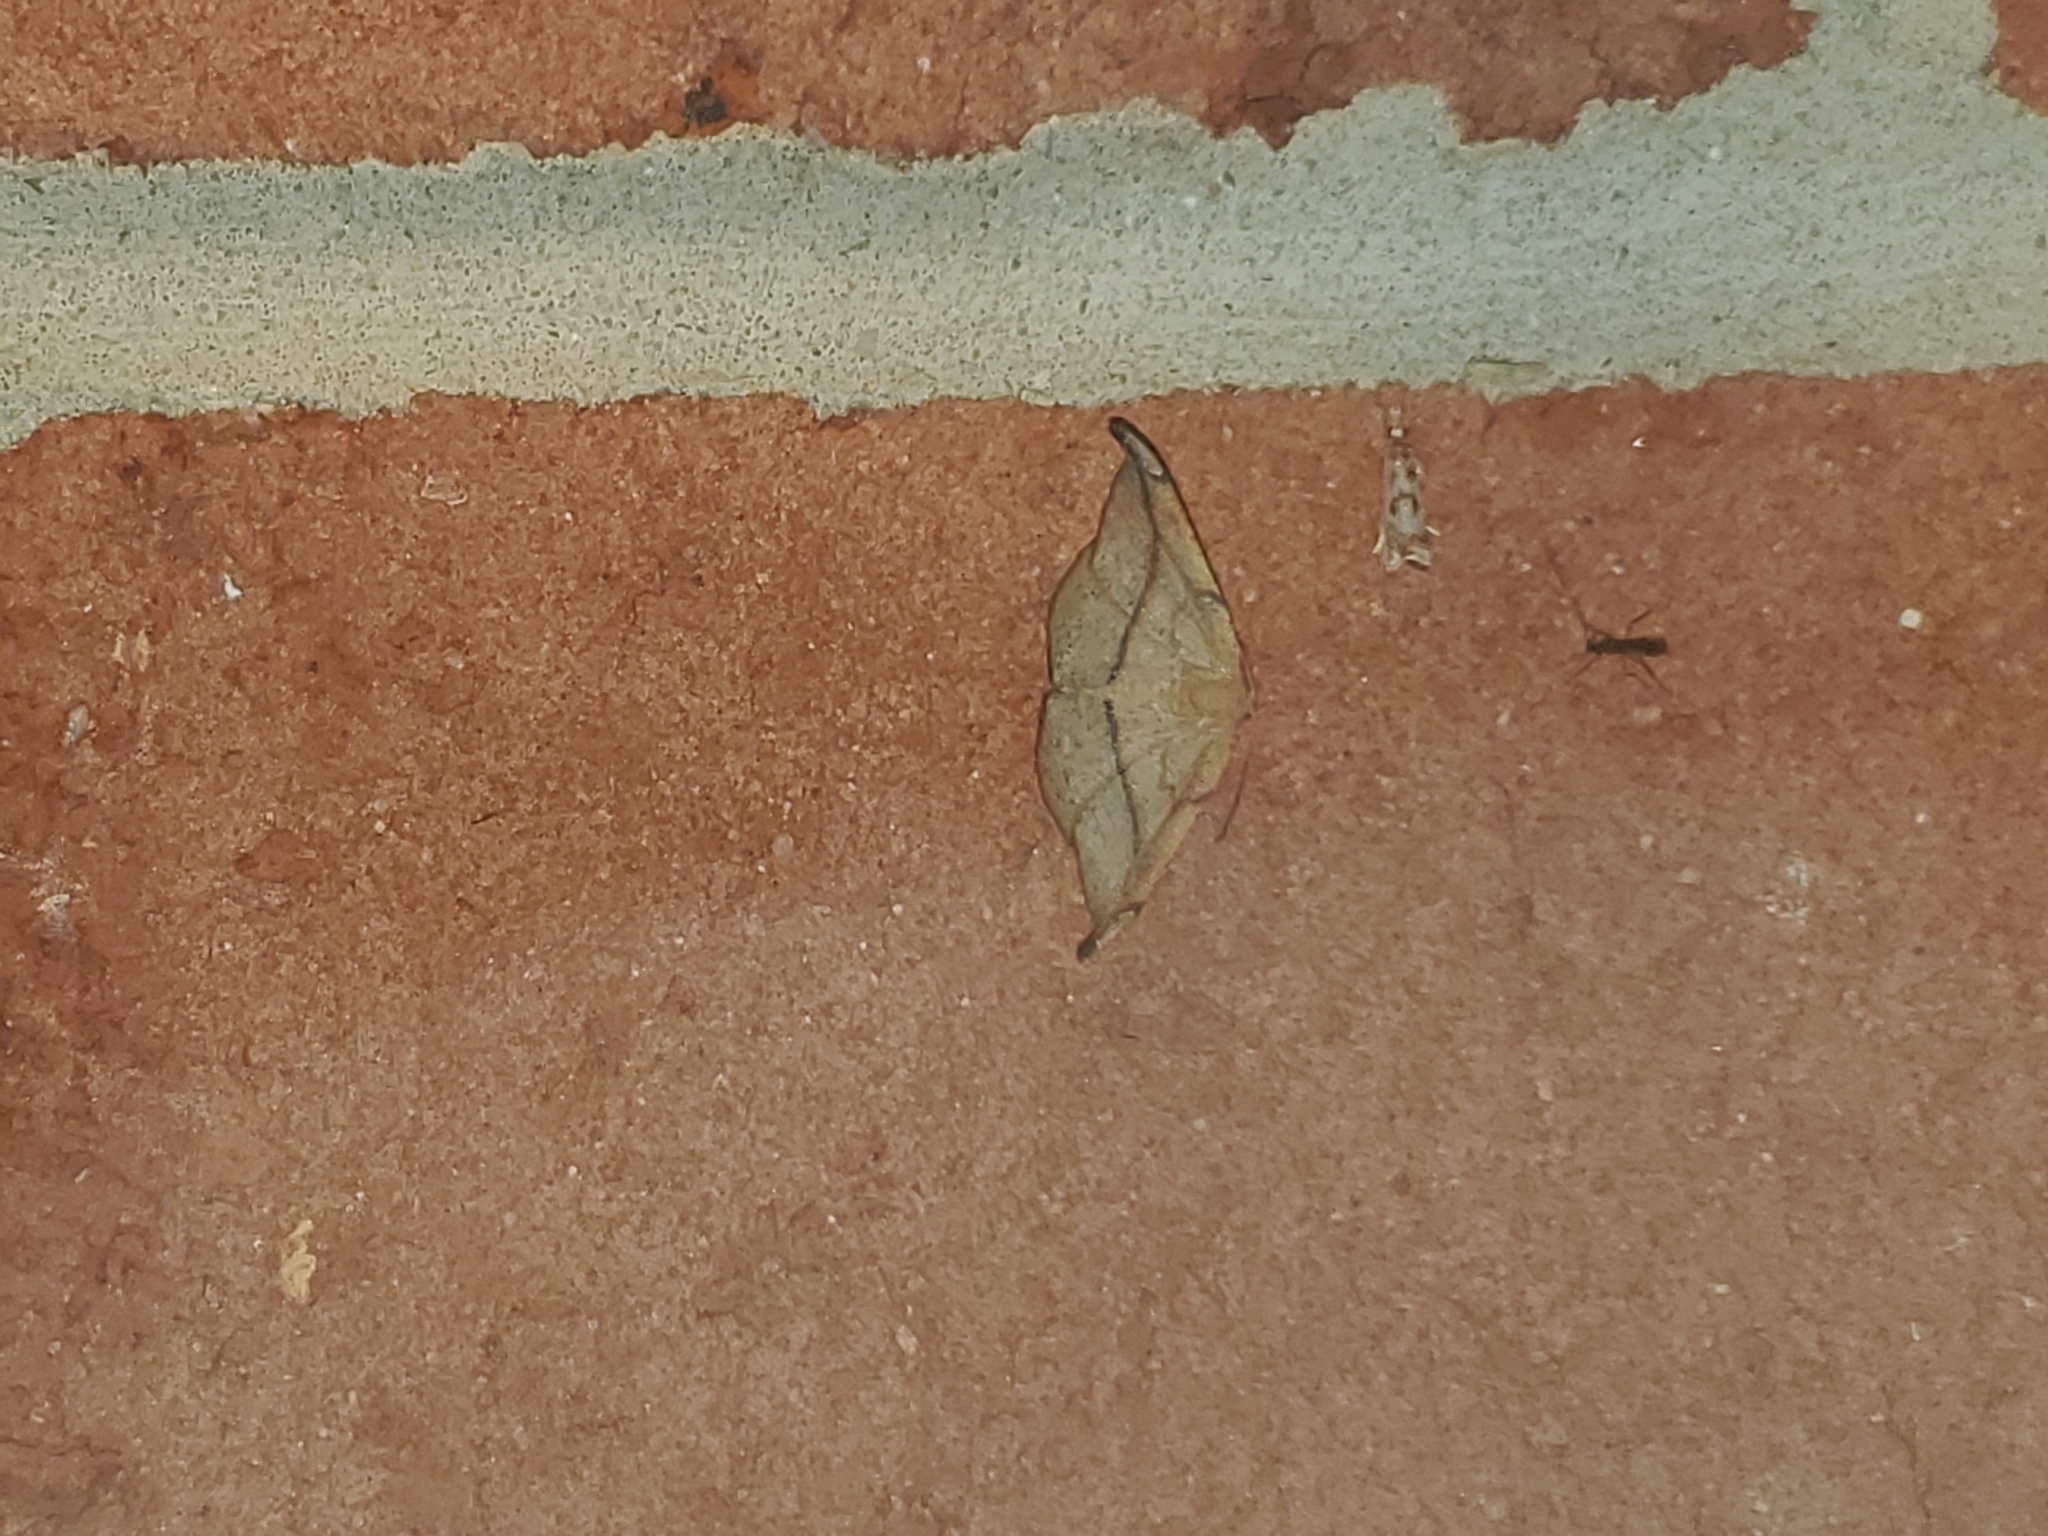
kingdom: Animalia
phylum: Arthropoda
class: Insecta
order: Lepidoptera
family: Geometridae
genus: Patalene
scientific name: Patalene olyzonaria
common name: Juniper geometer moth
